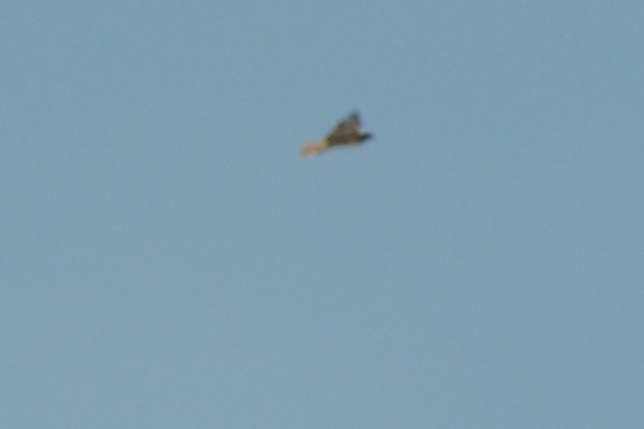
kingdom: Animalia
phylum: Chordata
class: Aves
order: Accipitriformes
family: Accipitridae
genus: Buteo
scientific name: Buteo jamaicensis
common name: Red-tailed hawk
